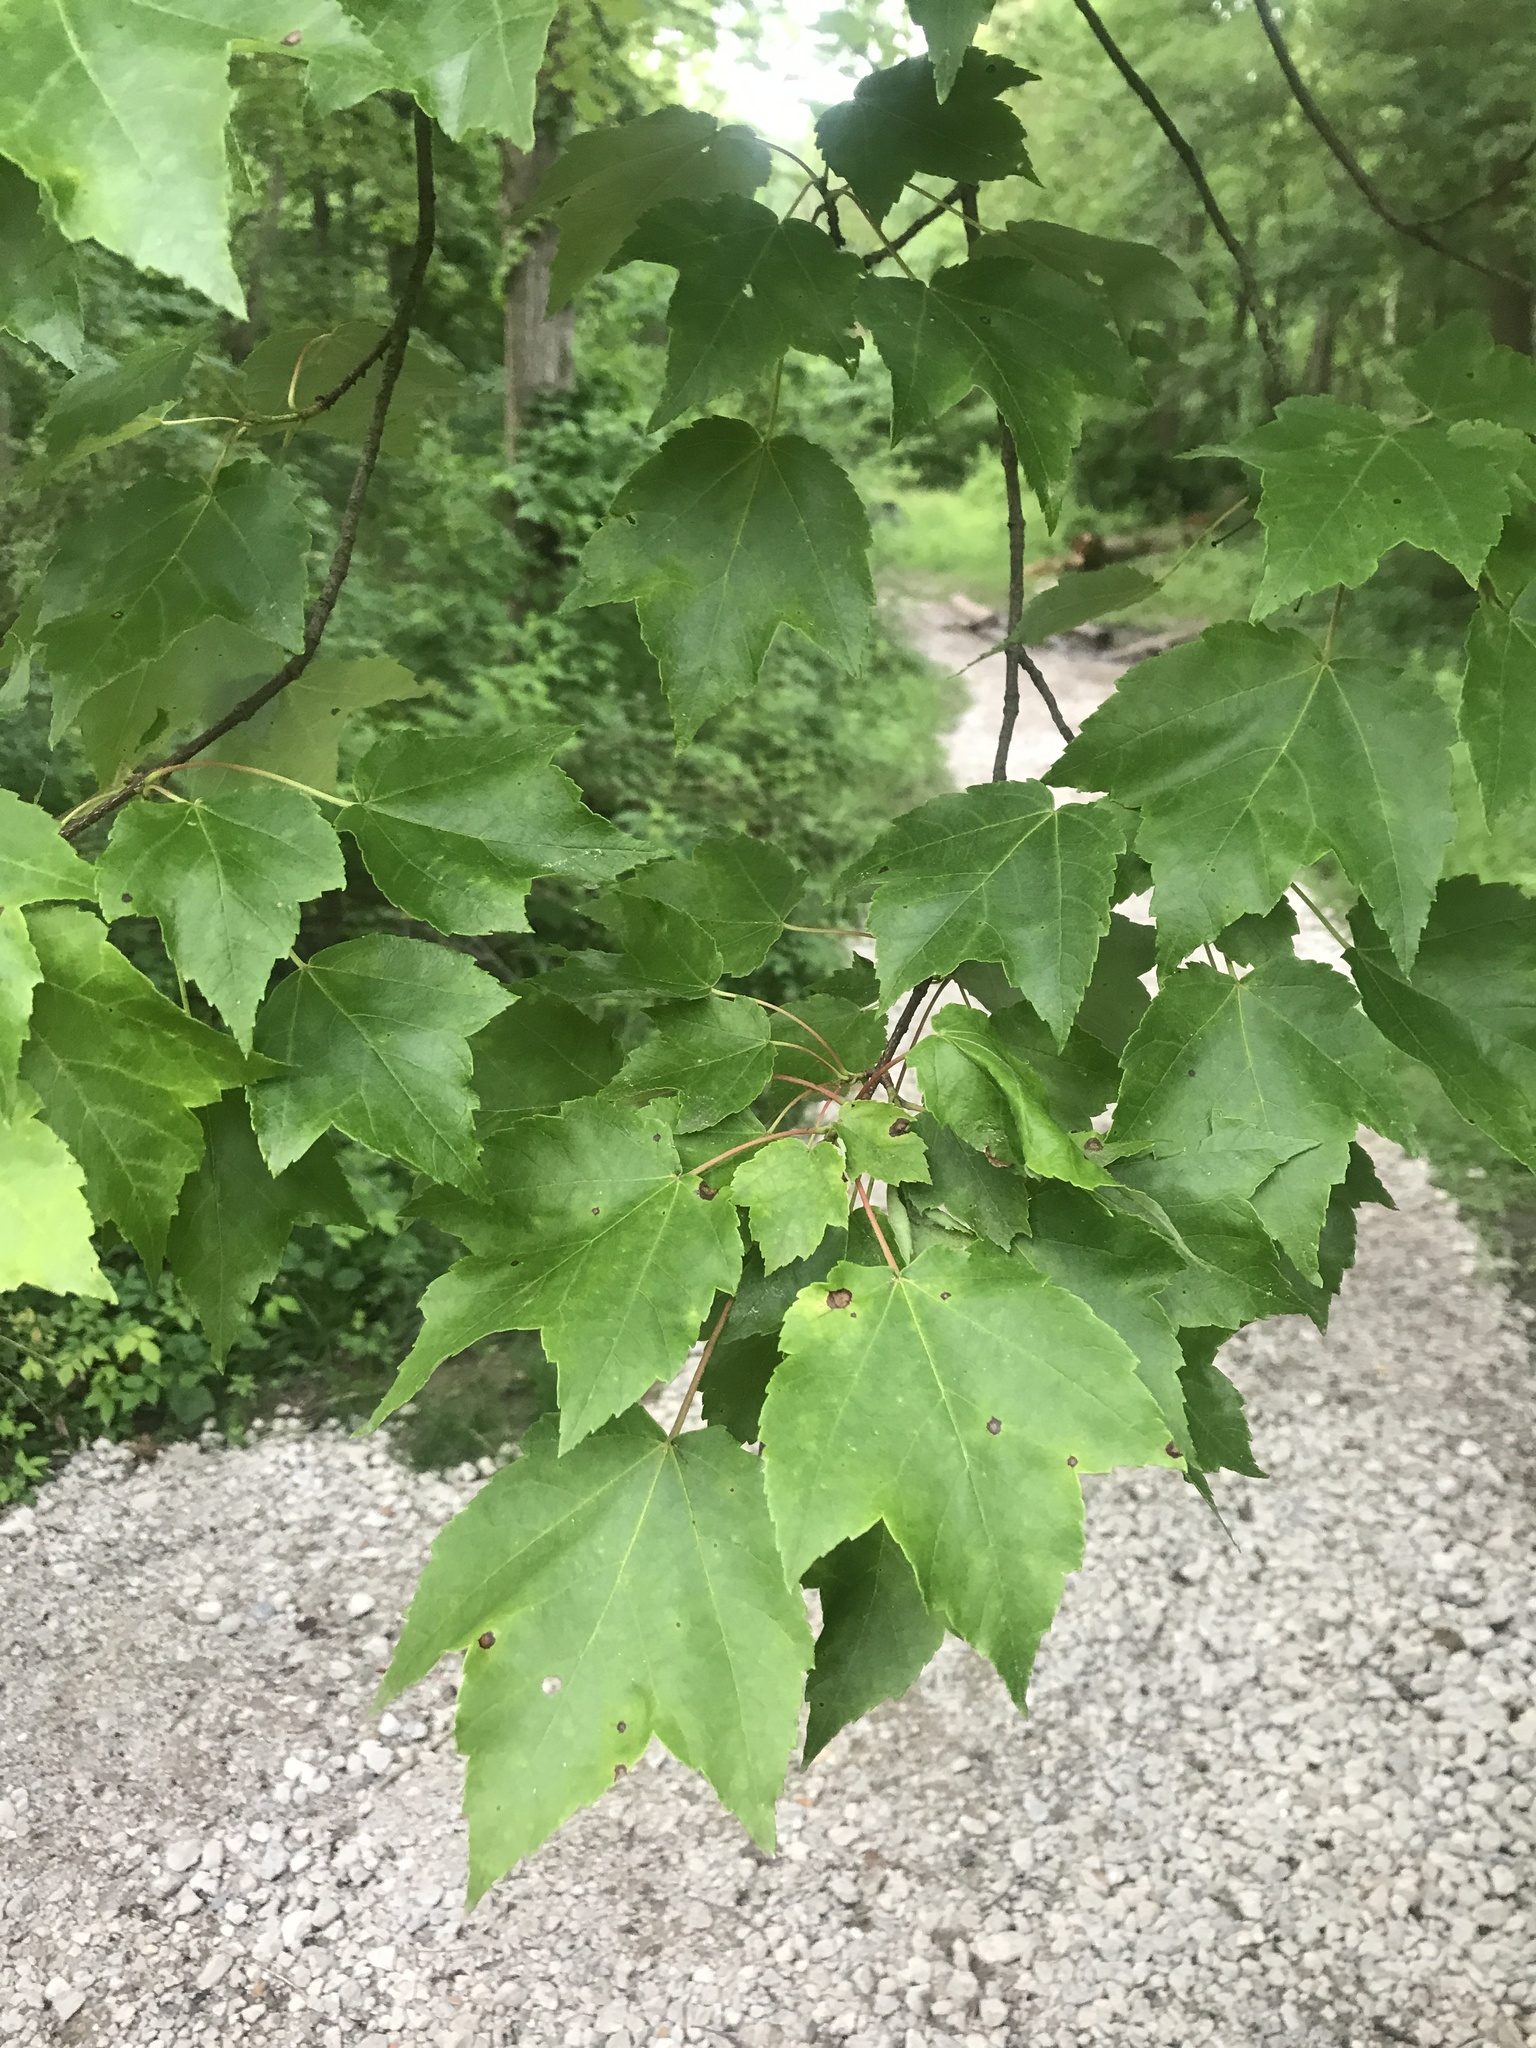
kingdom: Plantae
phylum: Tracheophyta
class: Magnoliopsida
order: Sapindales
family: Sapindaceae
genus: Acer
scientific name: Acer rubrum
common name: Red maple
